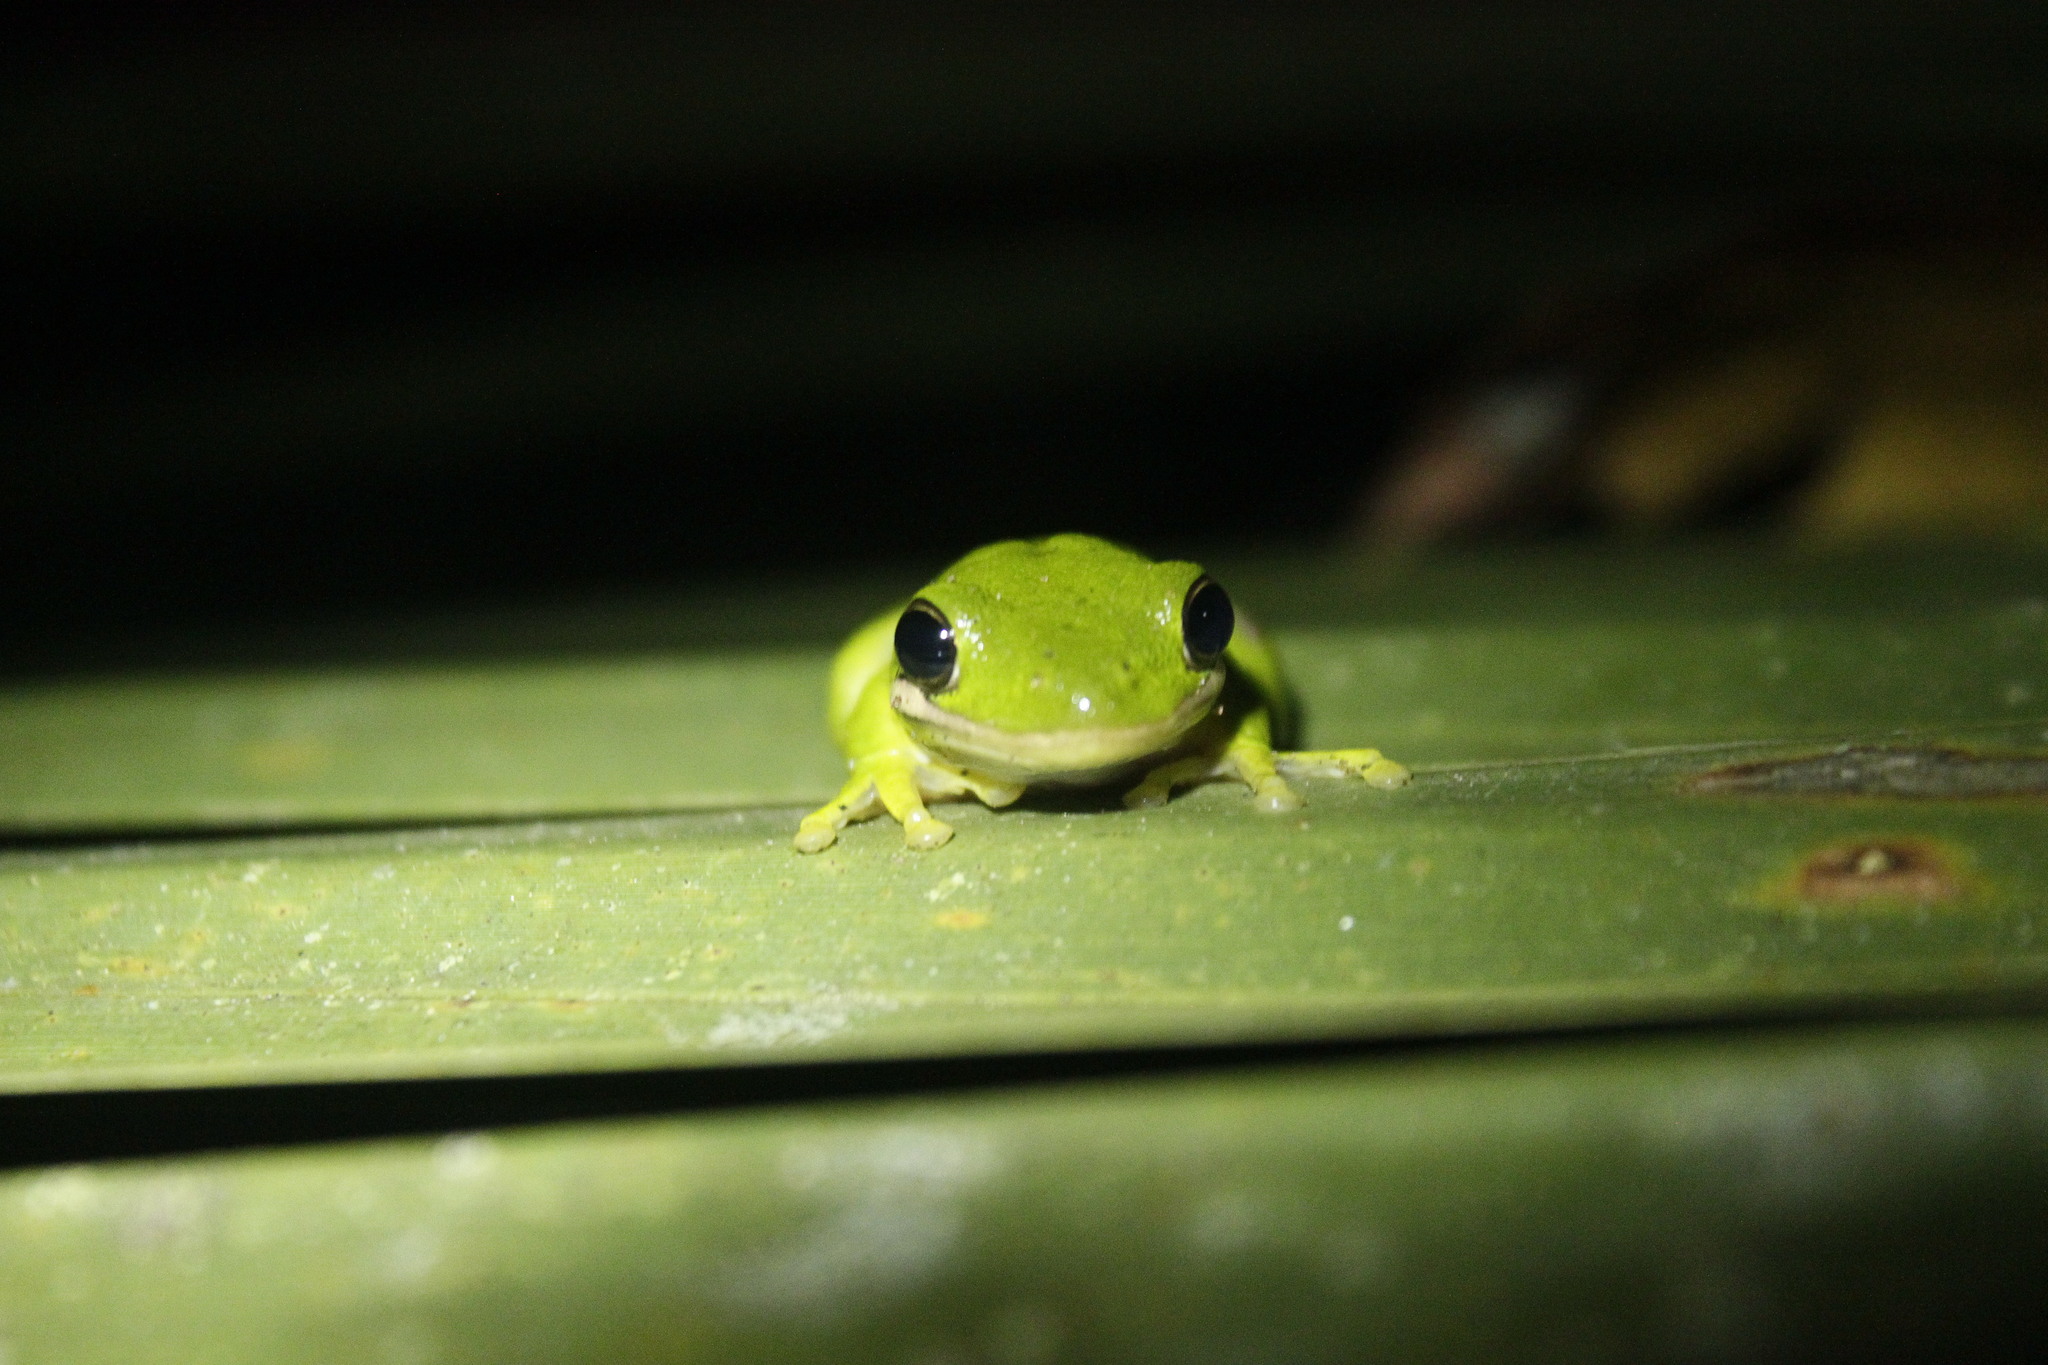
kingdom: Animalia
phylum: Chordata
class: Amphibia
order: Anura
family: Hylidae
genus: Dryophytes
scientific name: Dryophytes cinereus
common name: Green treefrog
